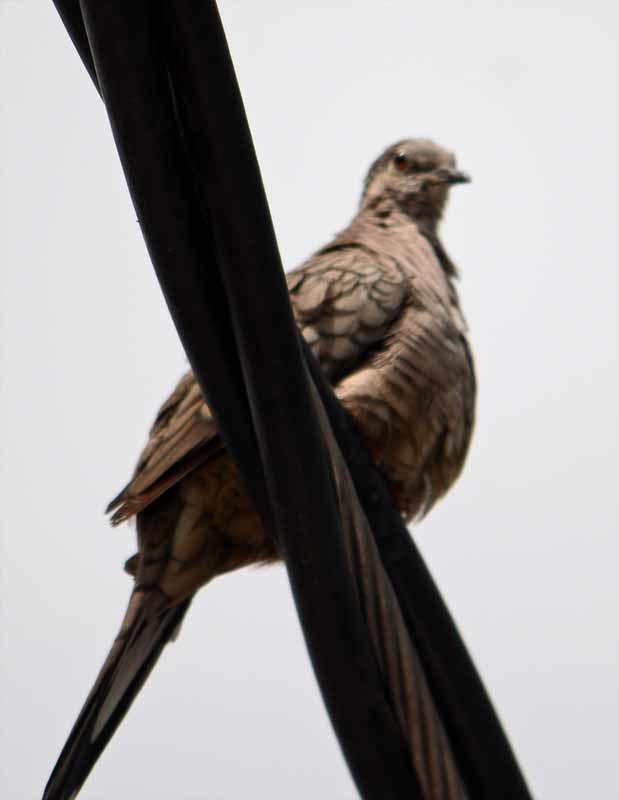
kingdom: Animalia
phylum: Chordata
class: Aves
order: Columbiformes
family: Columbidae
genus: Columbina
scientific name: Columbina inca
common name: Inca dove
